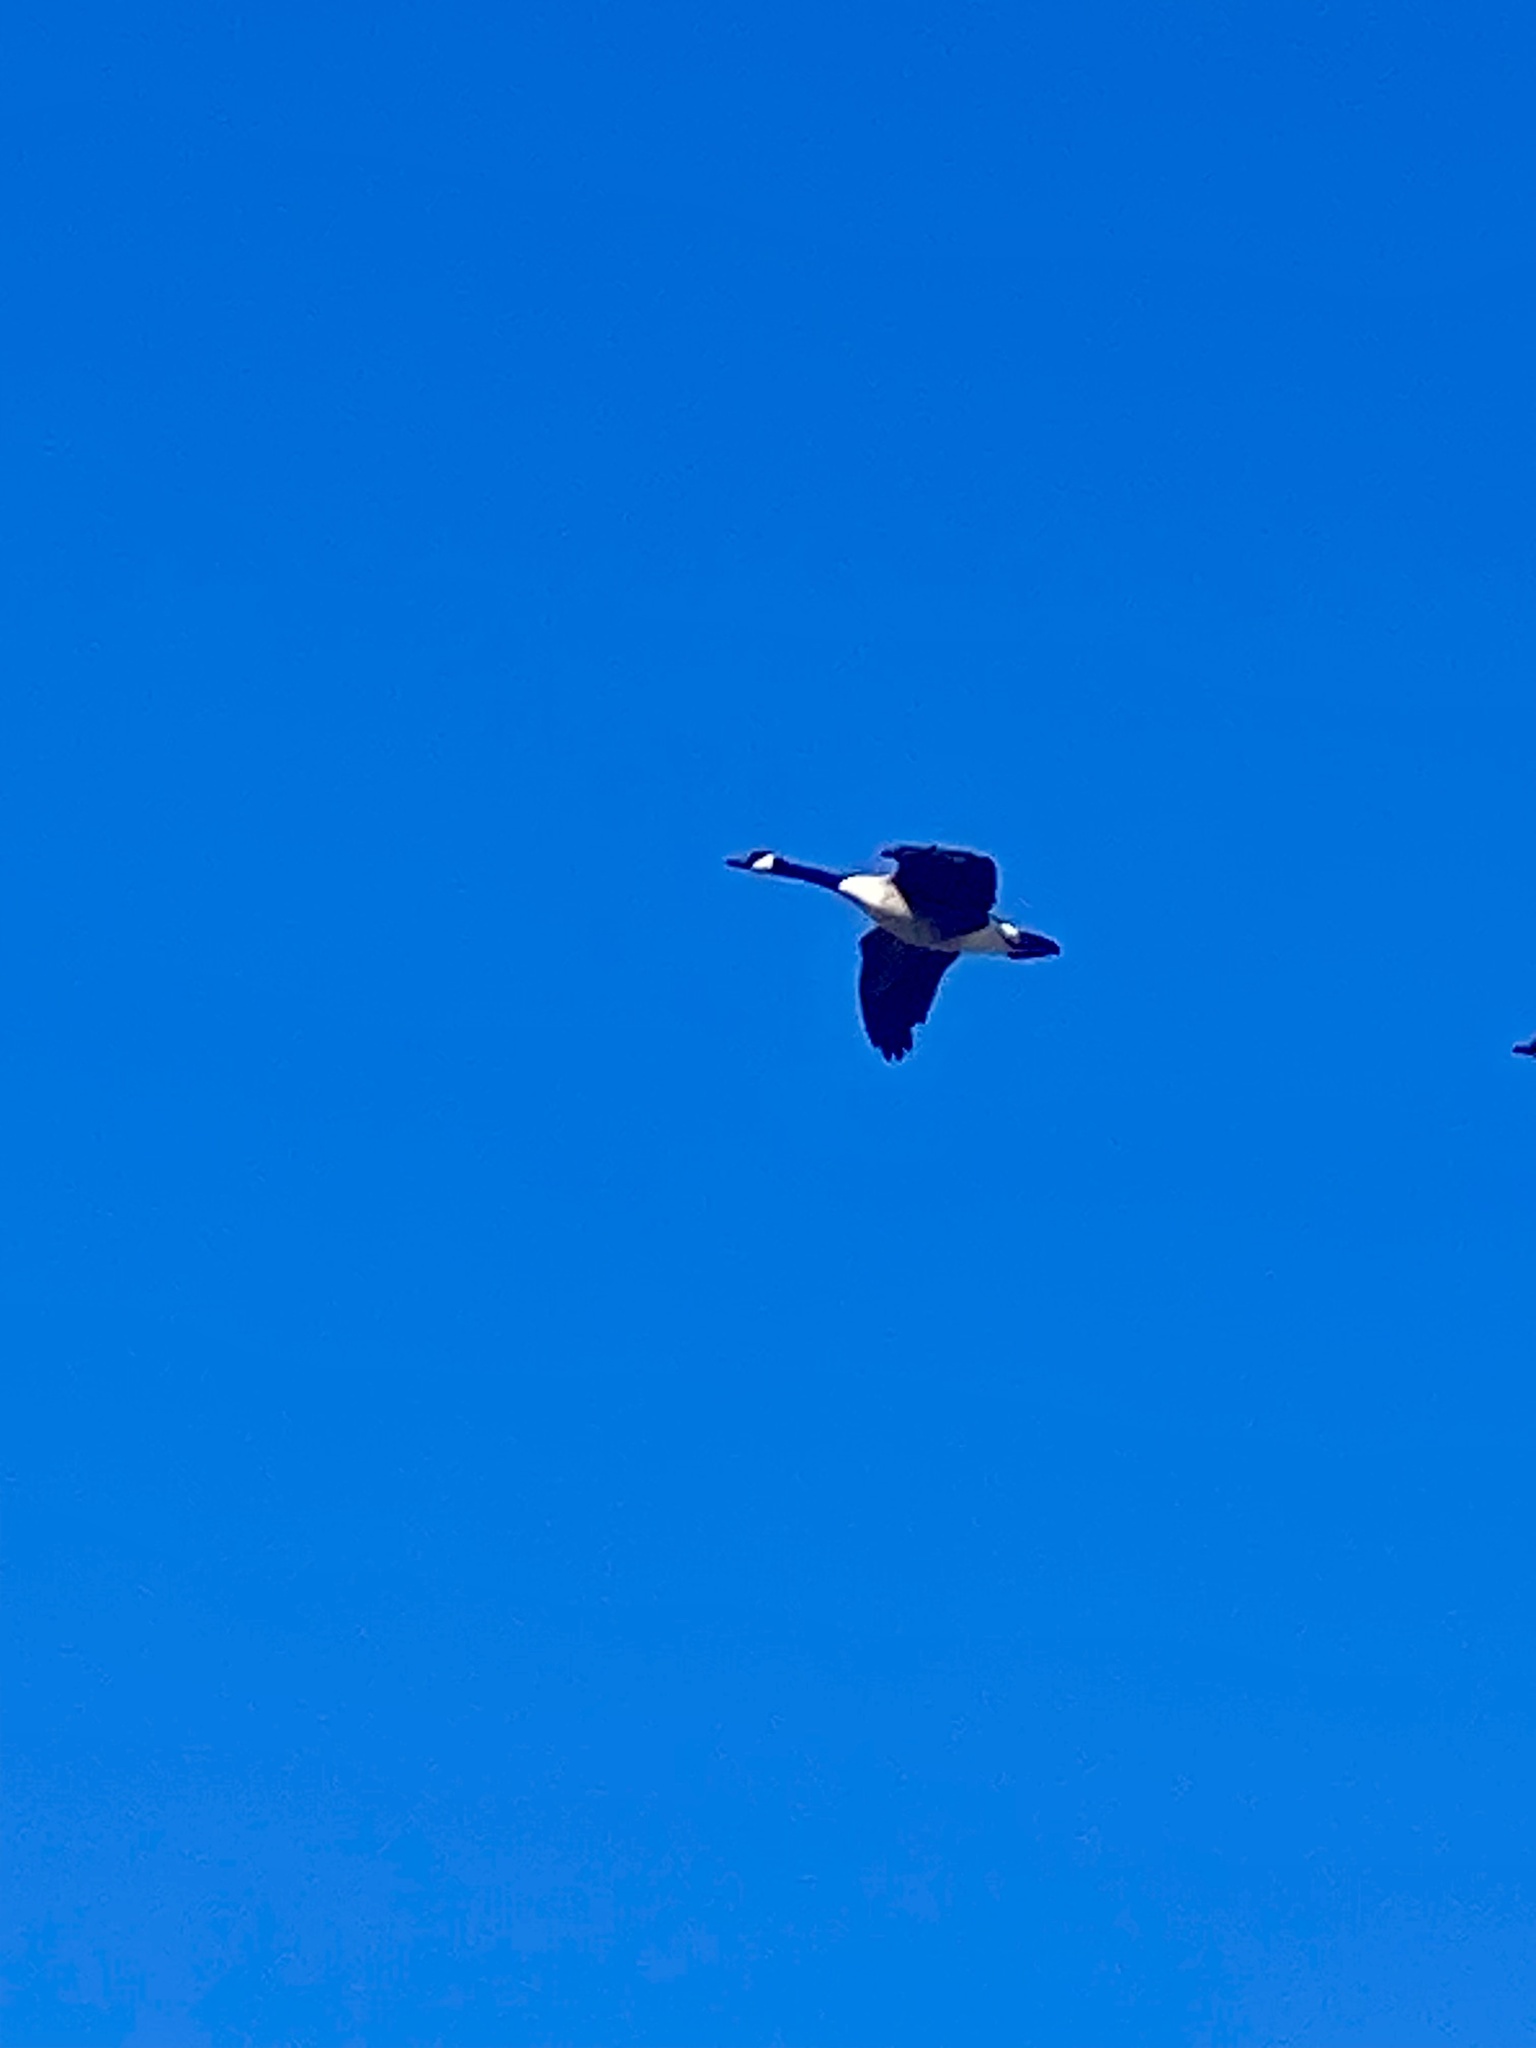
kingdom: Animalia
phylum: Chordata
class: Aves
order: Anseriformes
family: Anatidae
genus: Branta
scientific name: Branta canadensis
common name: Canada goose
